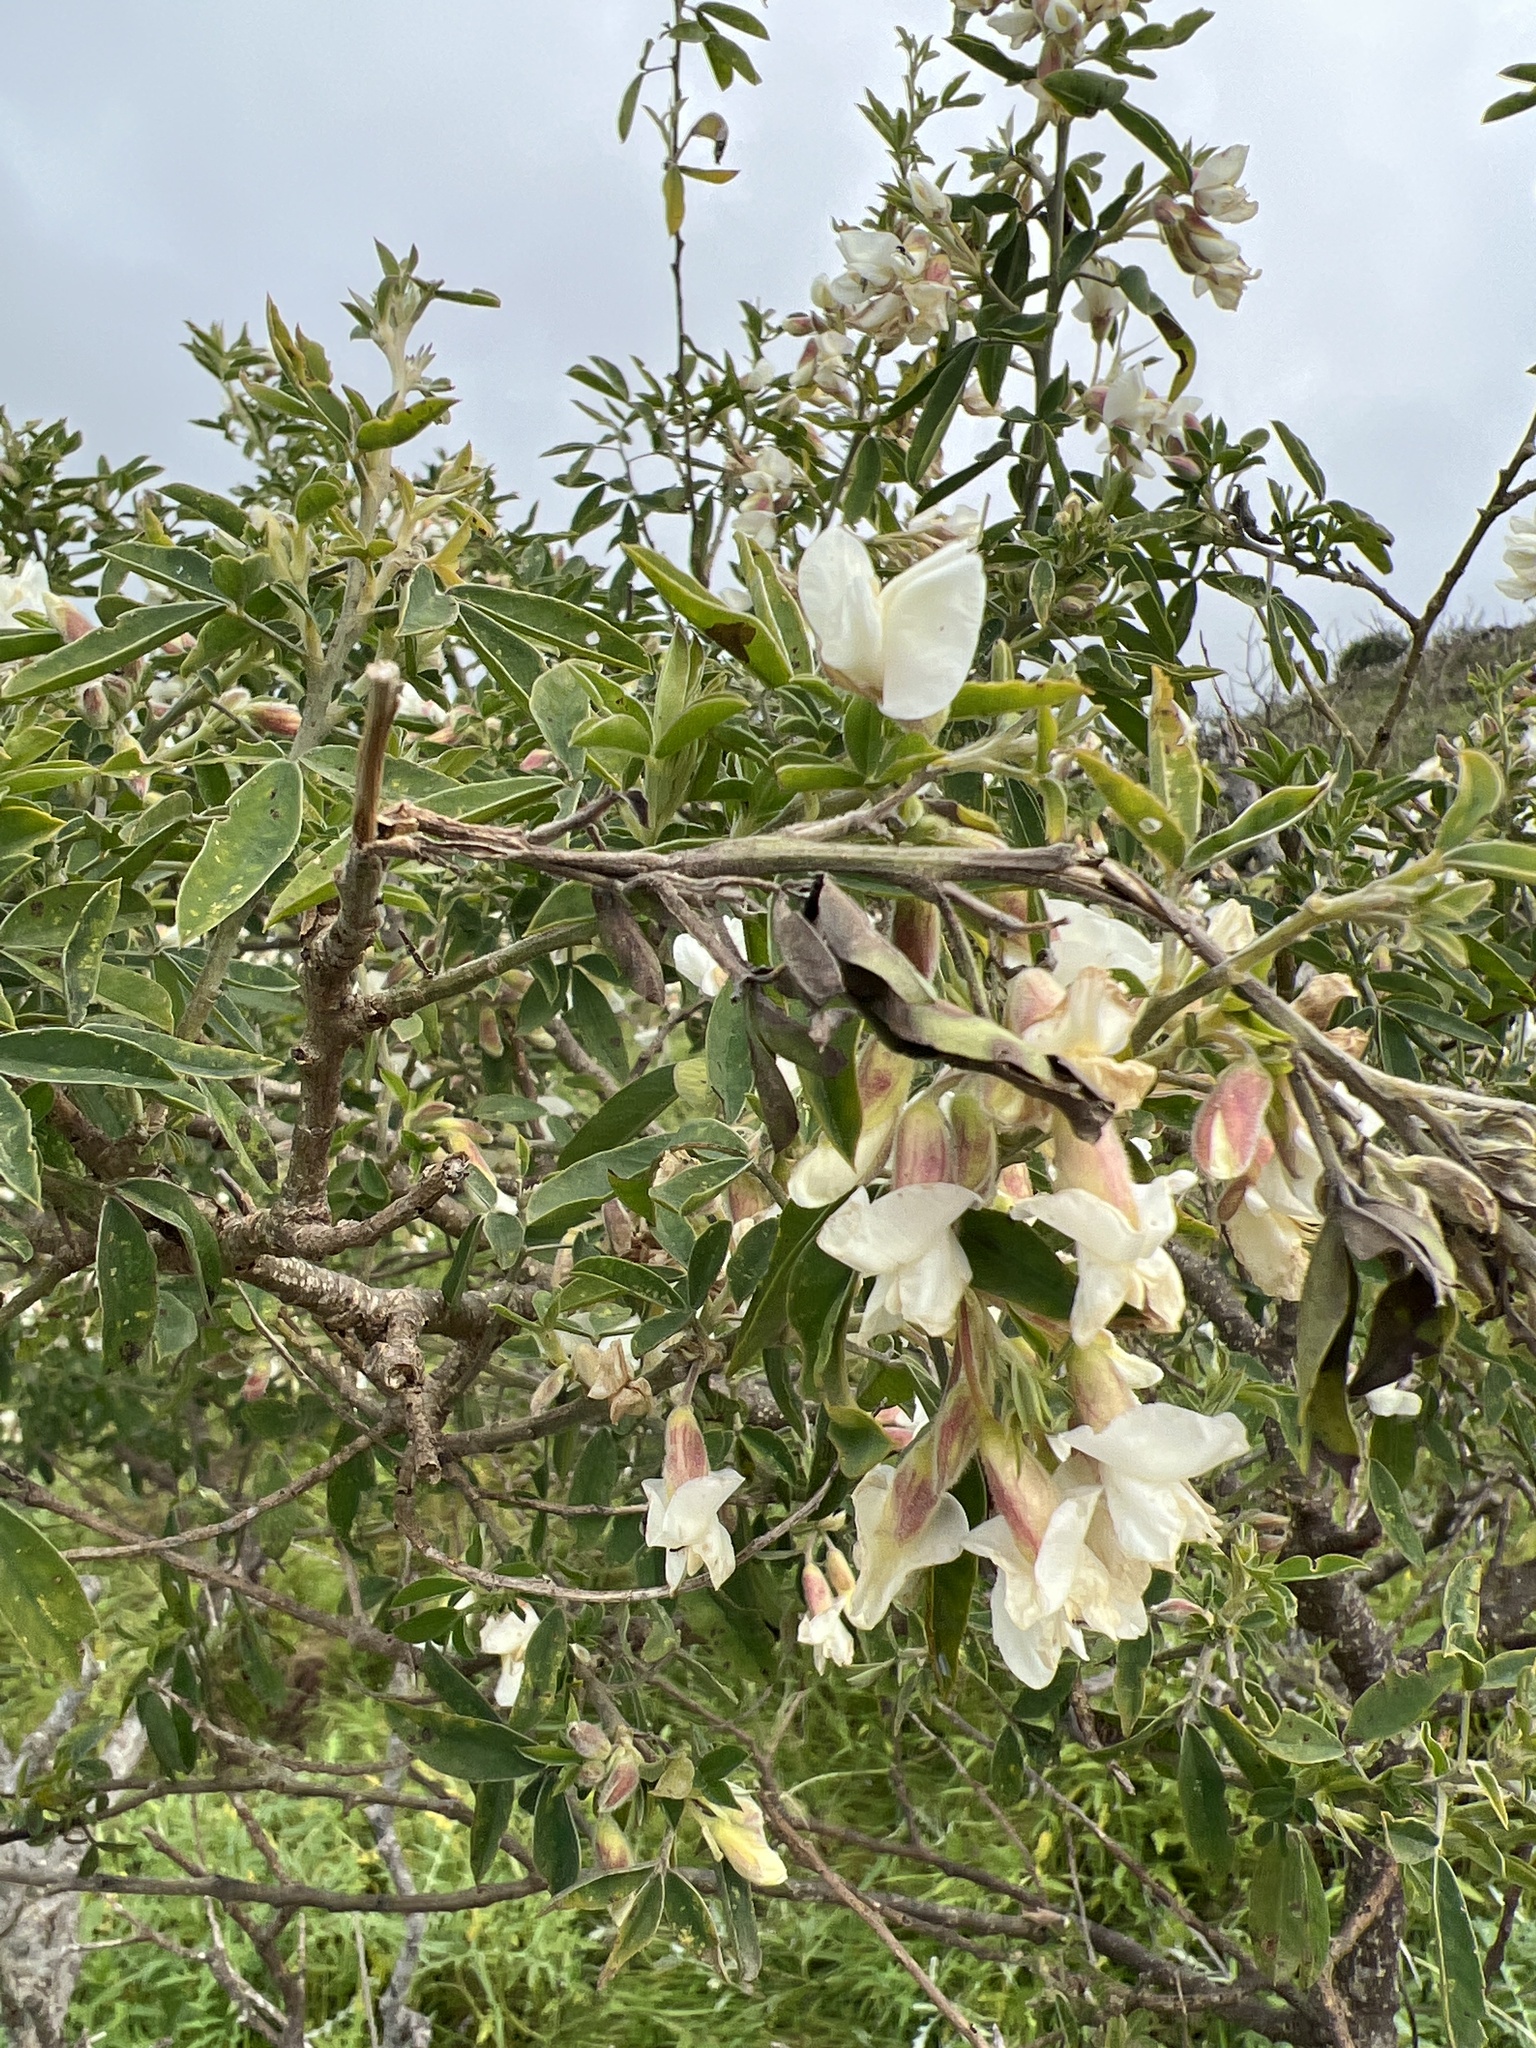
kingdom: Plantae
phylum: Tracheophyta
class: Magnoliopsida
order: Fabales
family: Fabaceae
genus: Chamaecytisus
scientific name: Chamaecytisus prolifer
